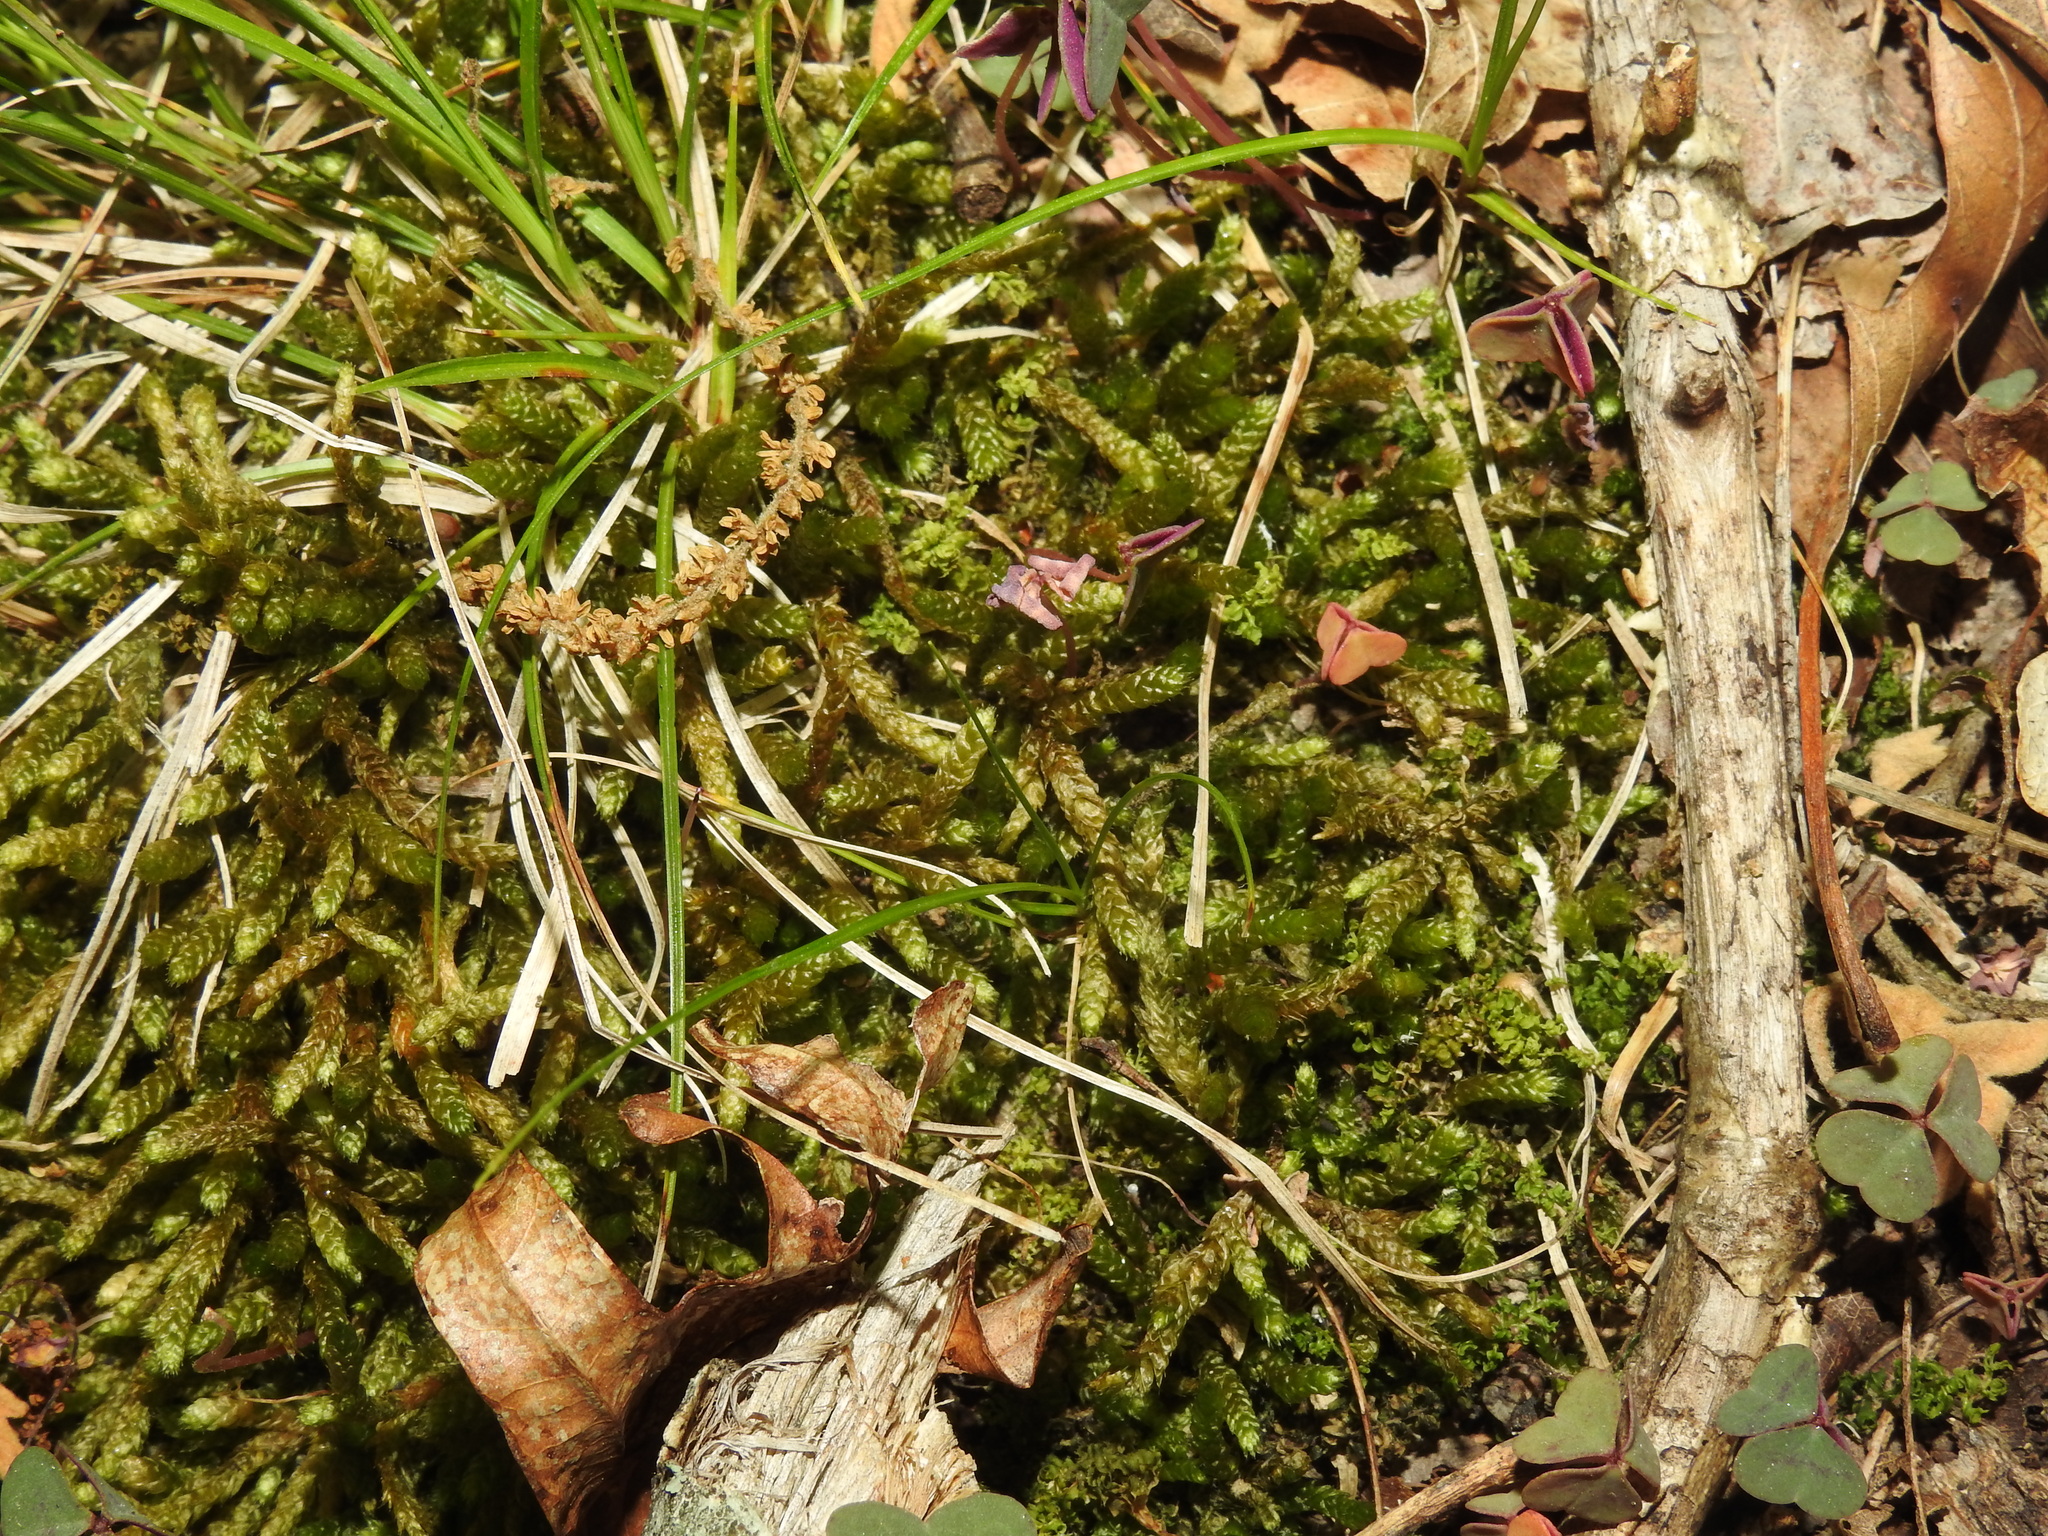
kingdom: Plantae
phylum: Bryophyta
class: Bryopsida
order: Hypnales
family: Entodontaceae
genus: Entodon
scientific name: Entodon seductrix
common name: Round-stemmed entodon moss
